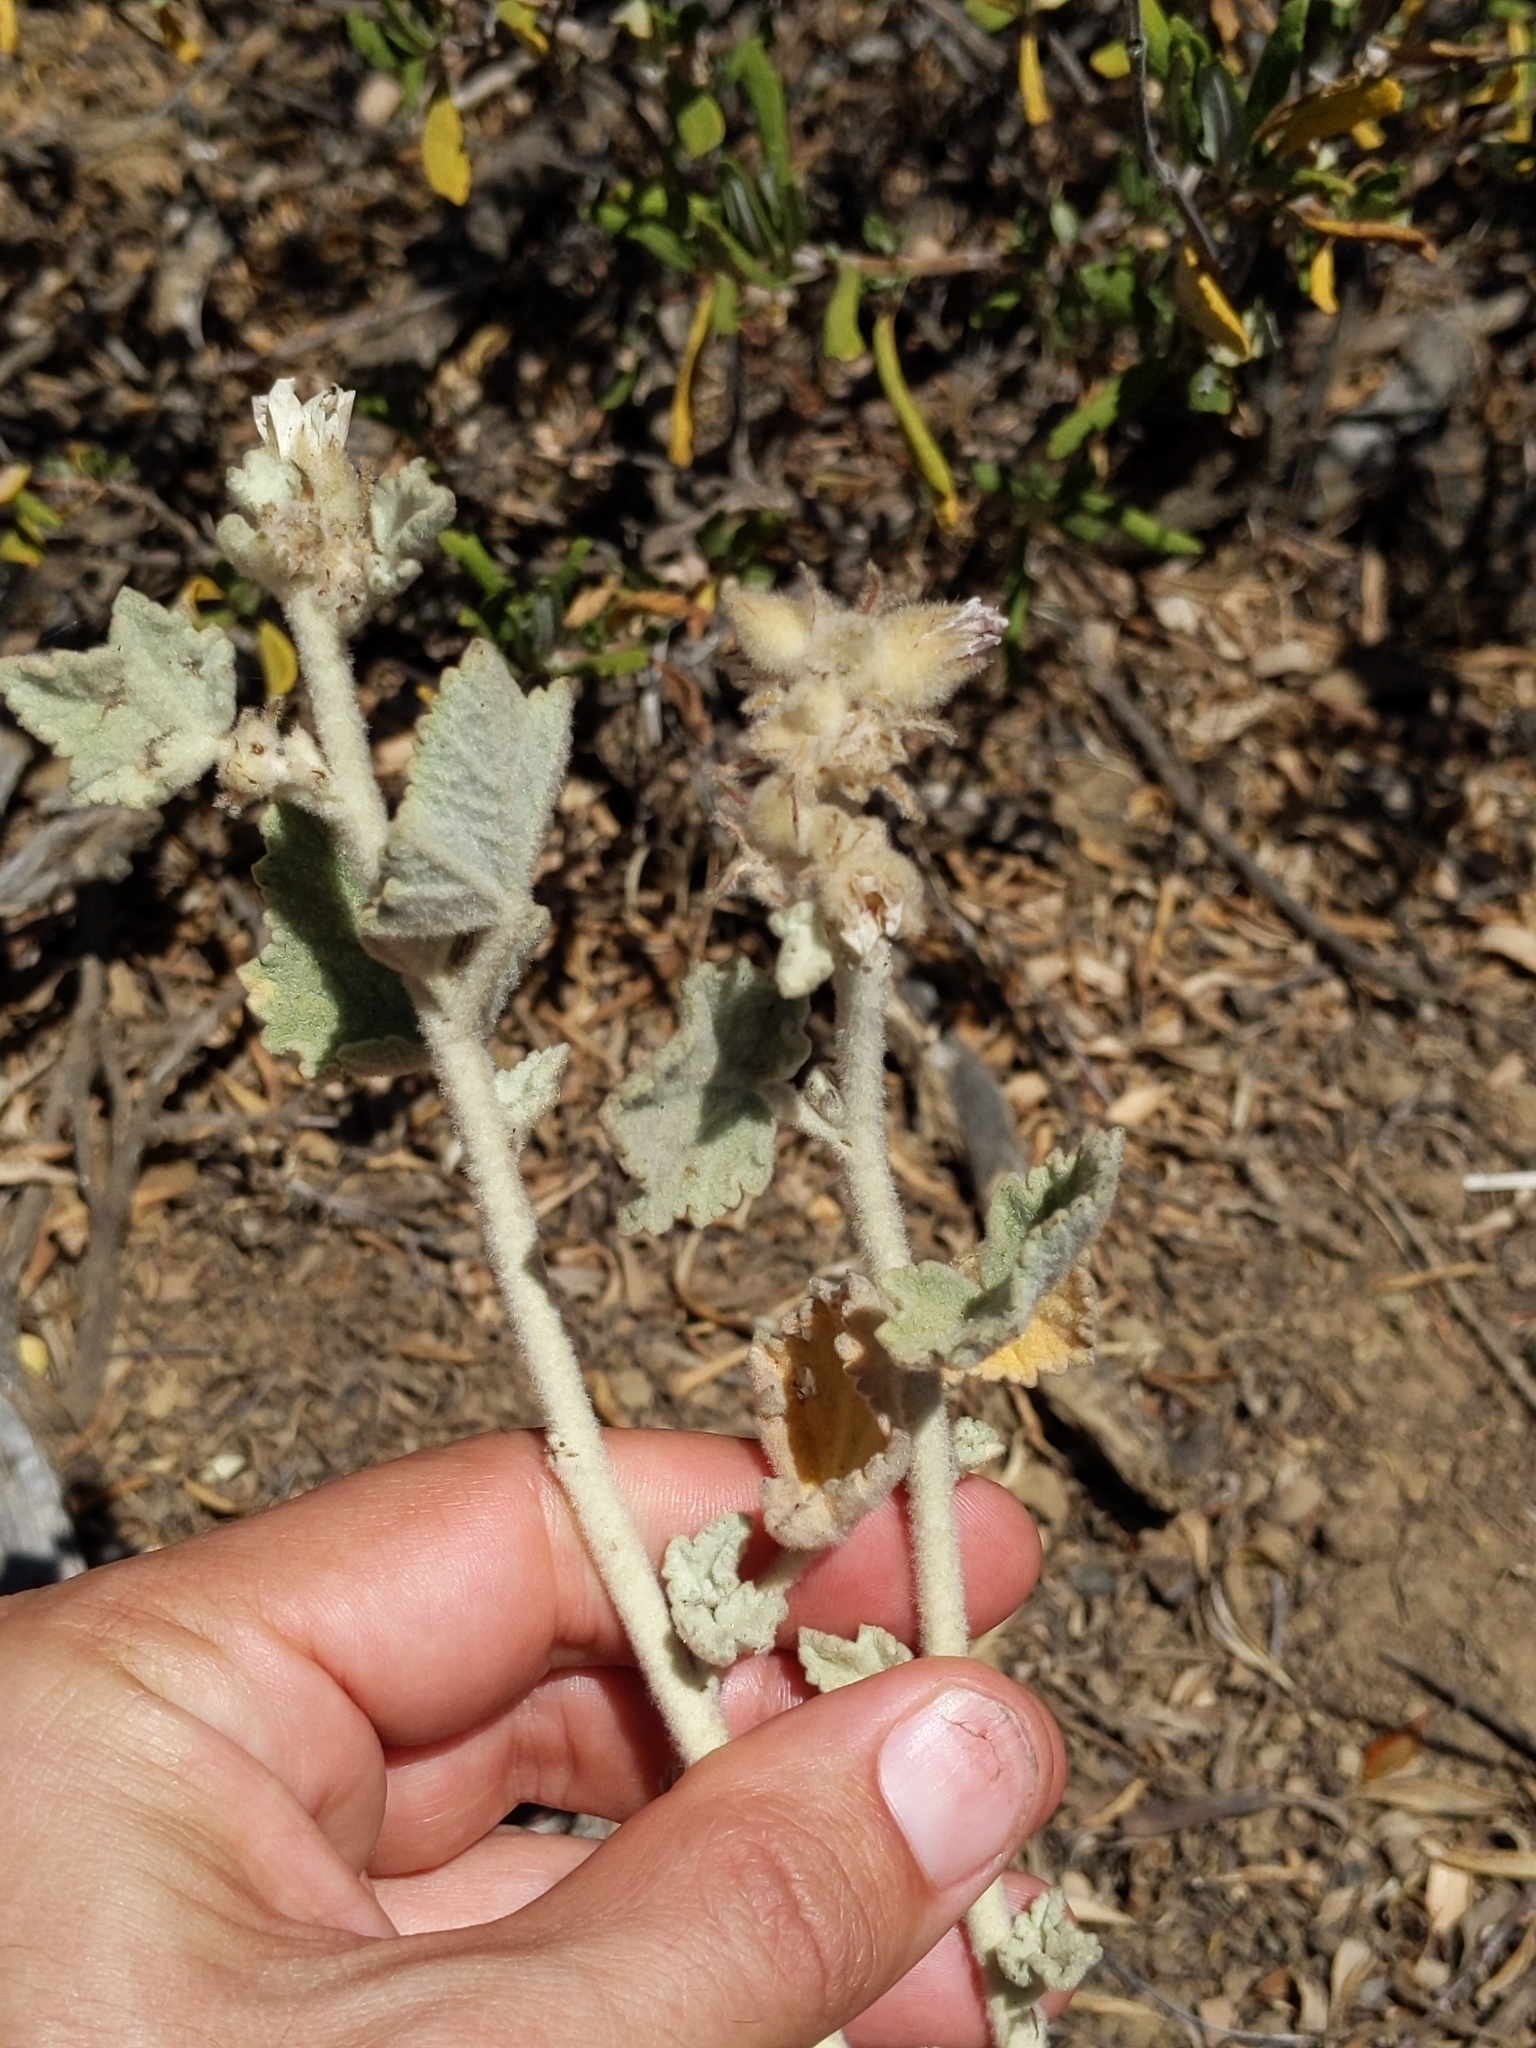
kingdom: Plantae
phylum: Tracheophyta
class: Magnoliopsida
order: Malvales
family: Malvaceae
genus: Malacothamnus
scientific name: Malacothamnus fremontii
